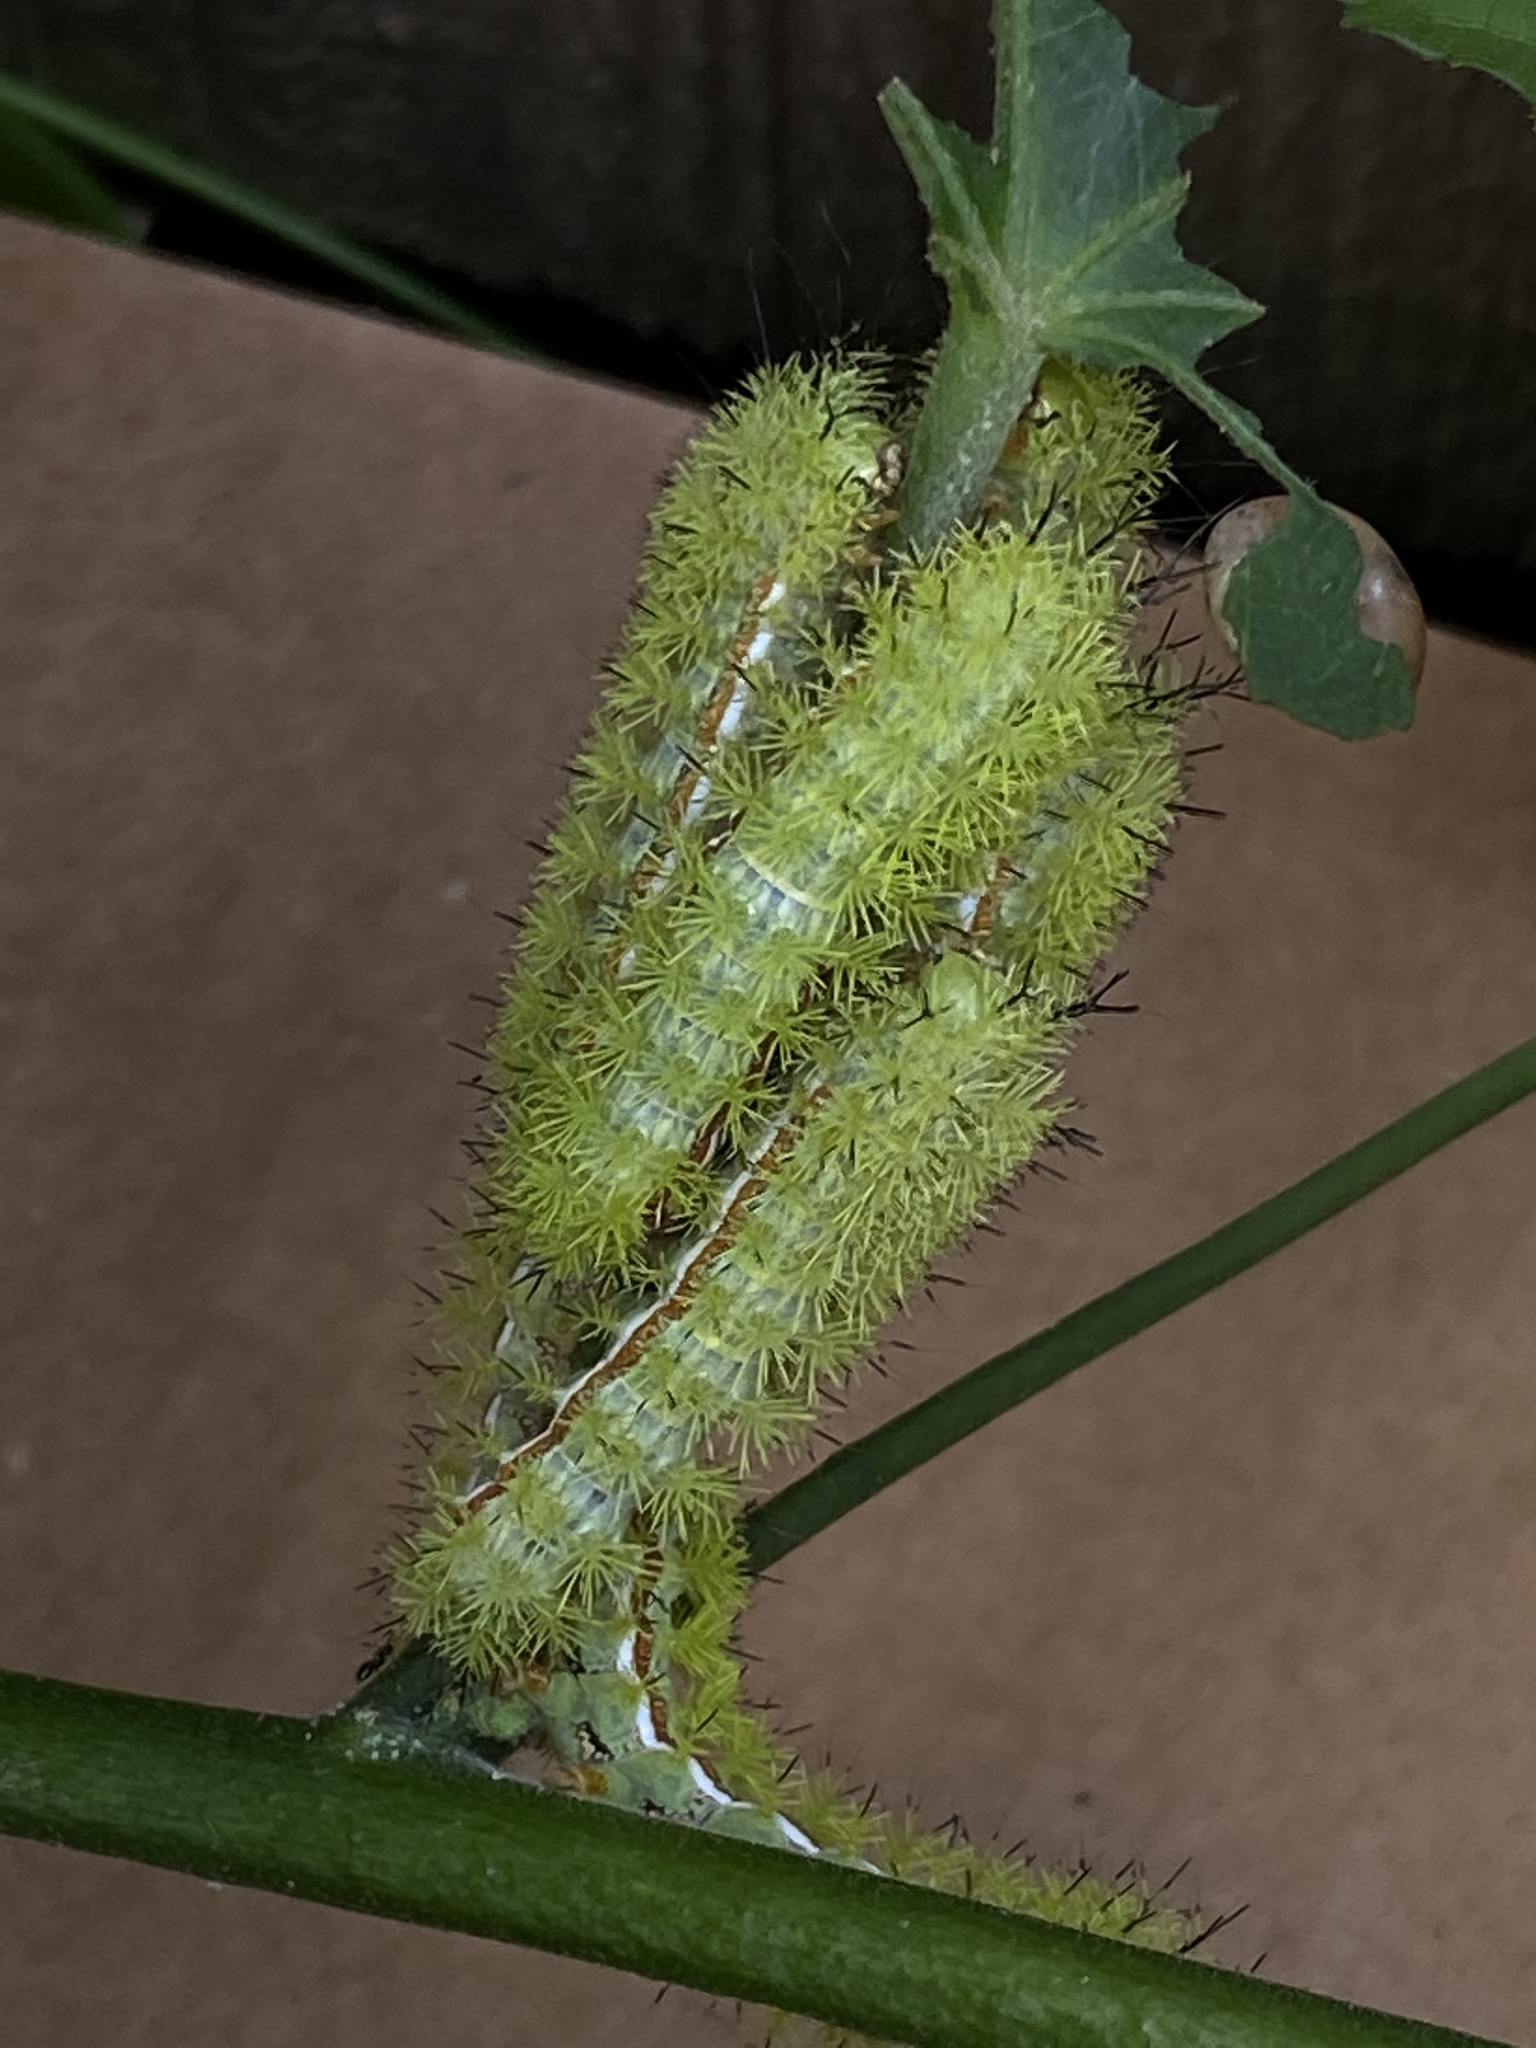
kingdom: Animalia
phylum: Arthropoda
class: Insecta
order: Lepidoptera
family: Saturniidae
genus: Automeris
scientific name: Automeris io
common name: Io moth
